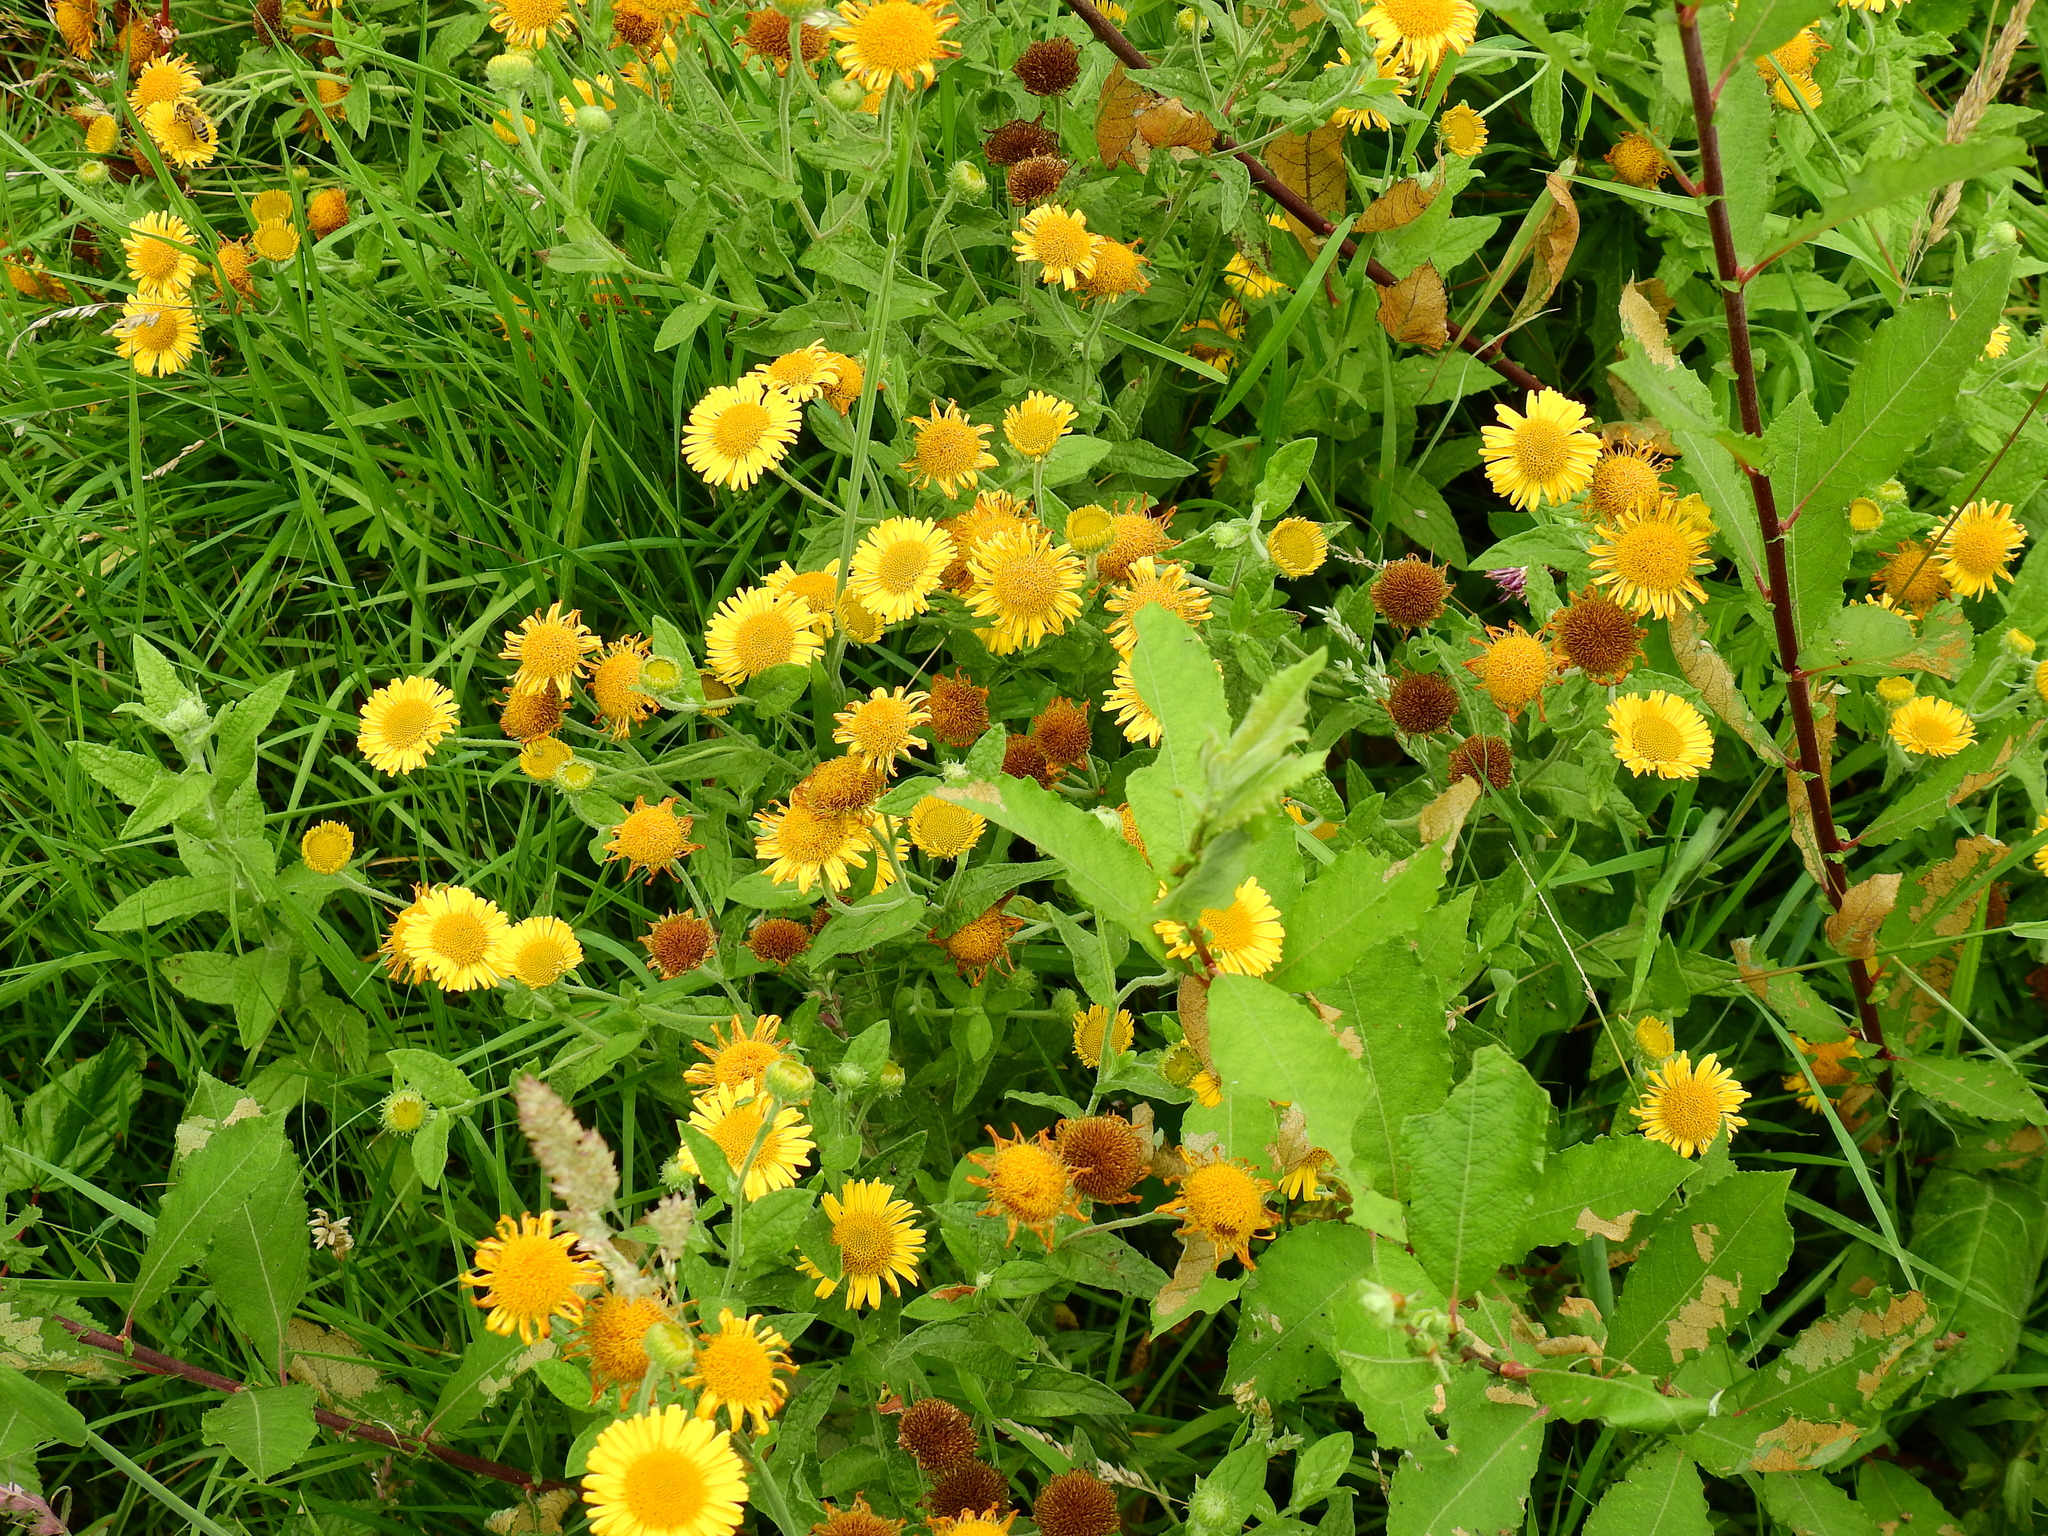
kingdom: Plantae
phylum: Tracheophyta
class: Magnoliopsida
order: Asterales
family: Asteraceae
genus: Pulicaria
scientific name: Pulicaria dysenterica
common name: Common fleabane
